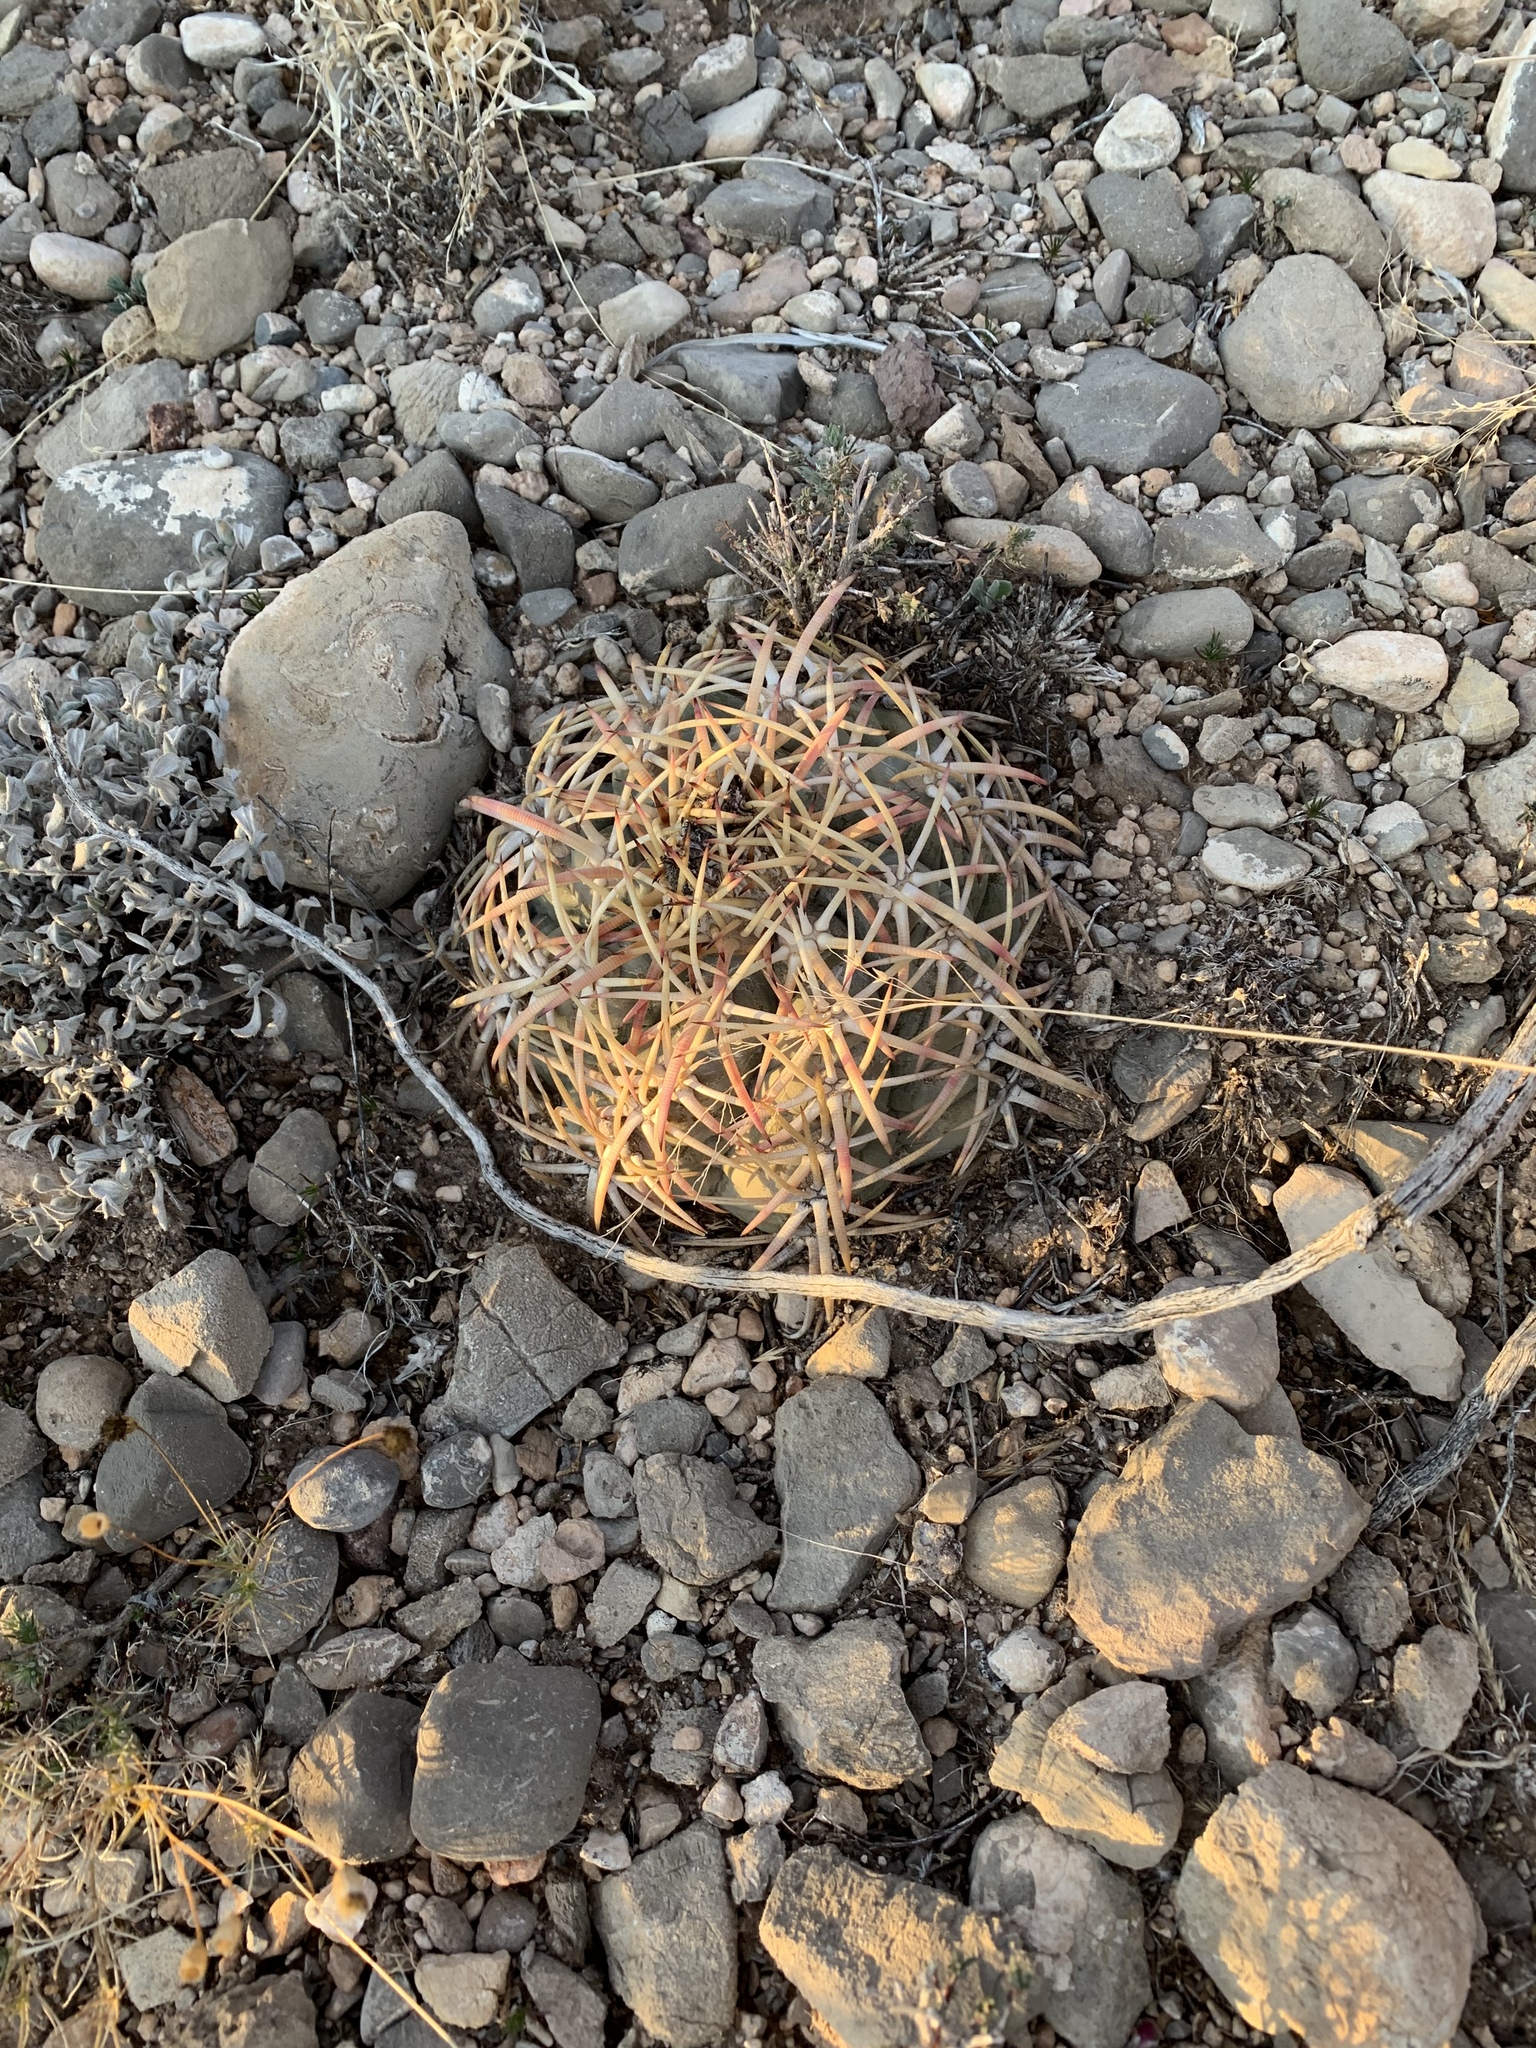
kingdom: Plantae
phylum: Tracheophyta
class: Magnoliopsida
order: Caryophyllales
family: Cactaceae
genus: Echinocactus
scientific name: Echinocactus horizonthalonius
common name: Devilshead
